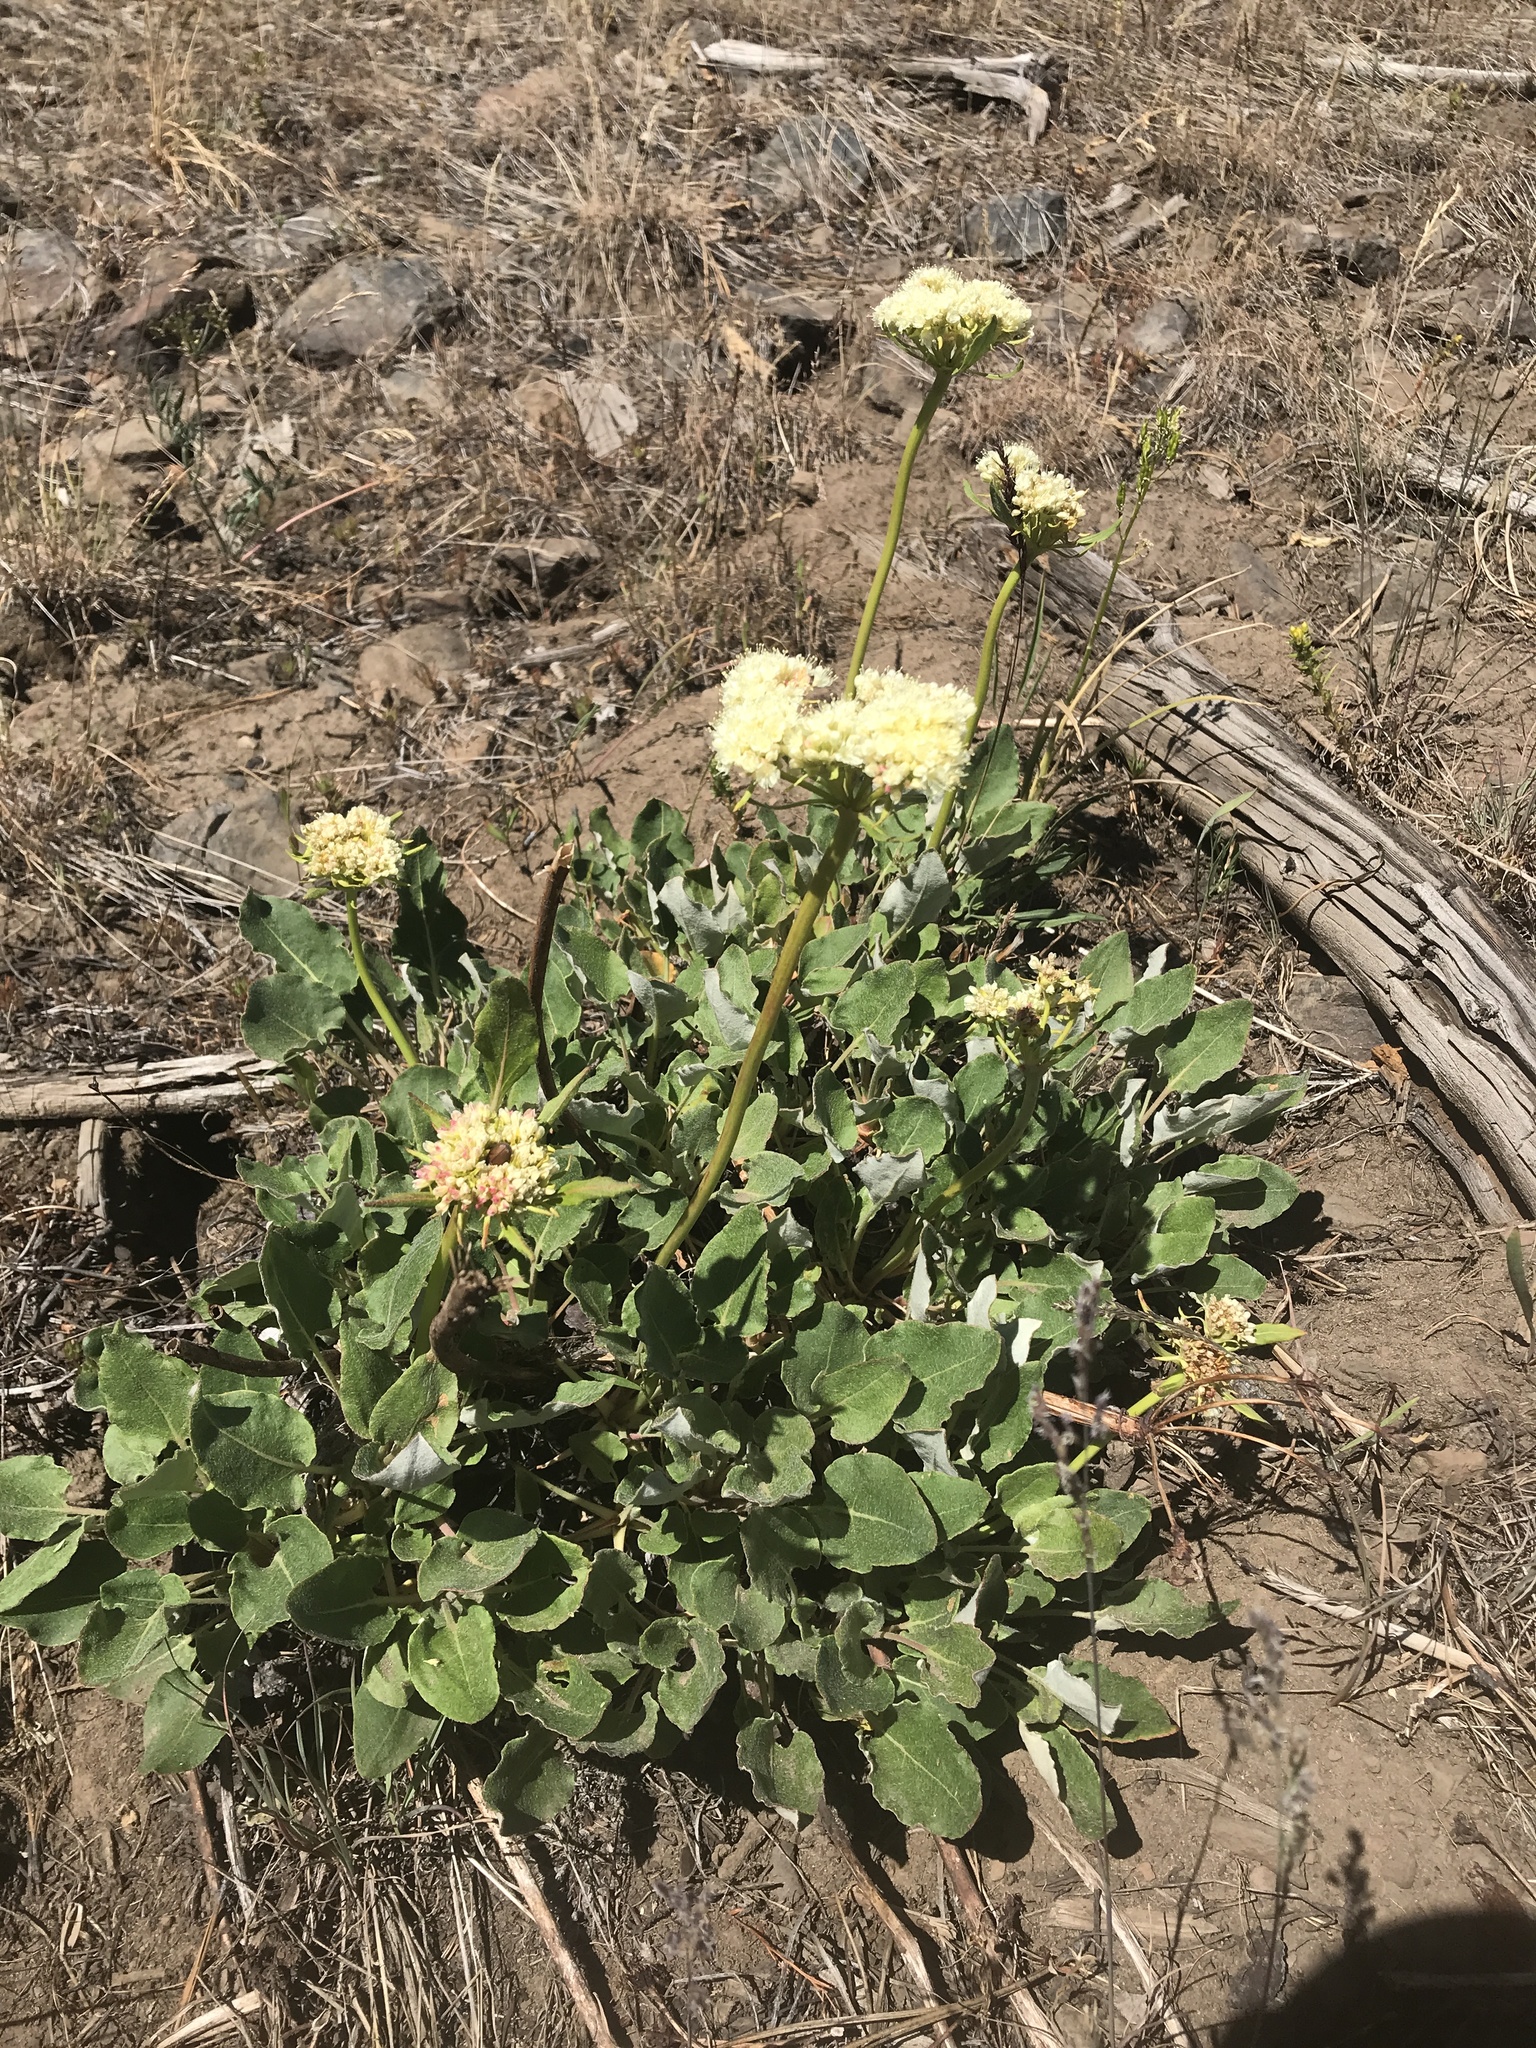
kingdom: Plantae
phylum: Tracheophyta
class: Magnoliopsida
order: Caryophyllales
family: Polygonaceae
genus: Eriogonum
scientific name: Eriogonum compositum
